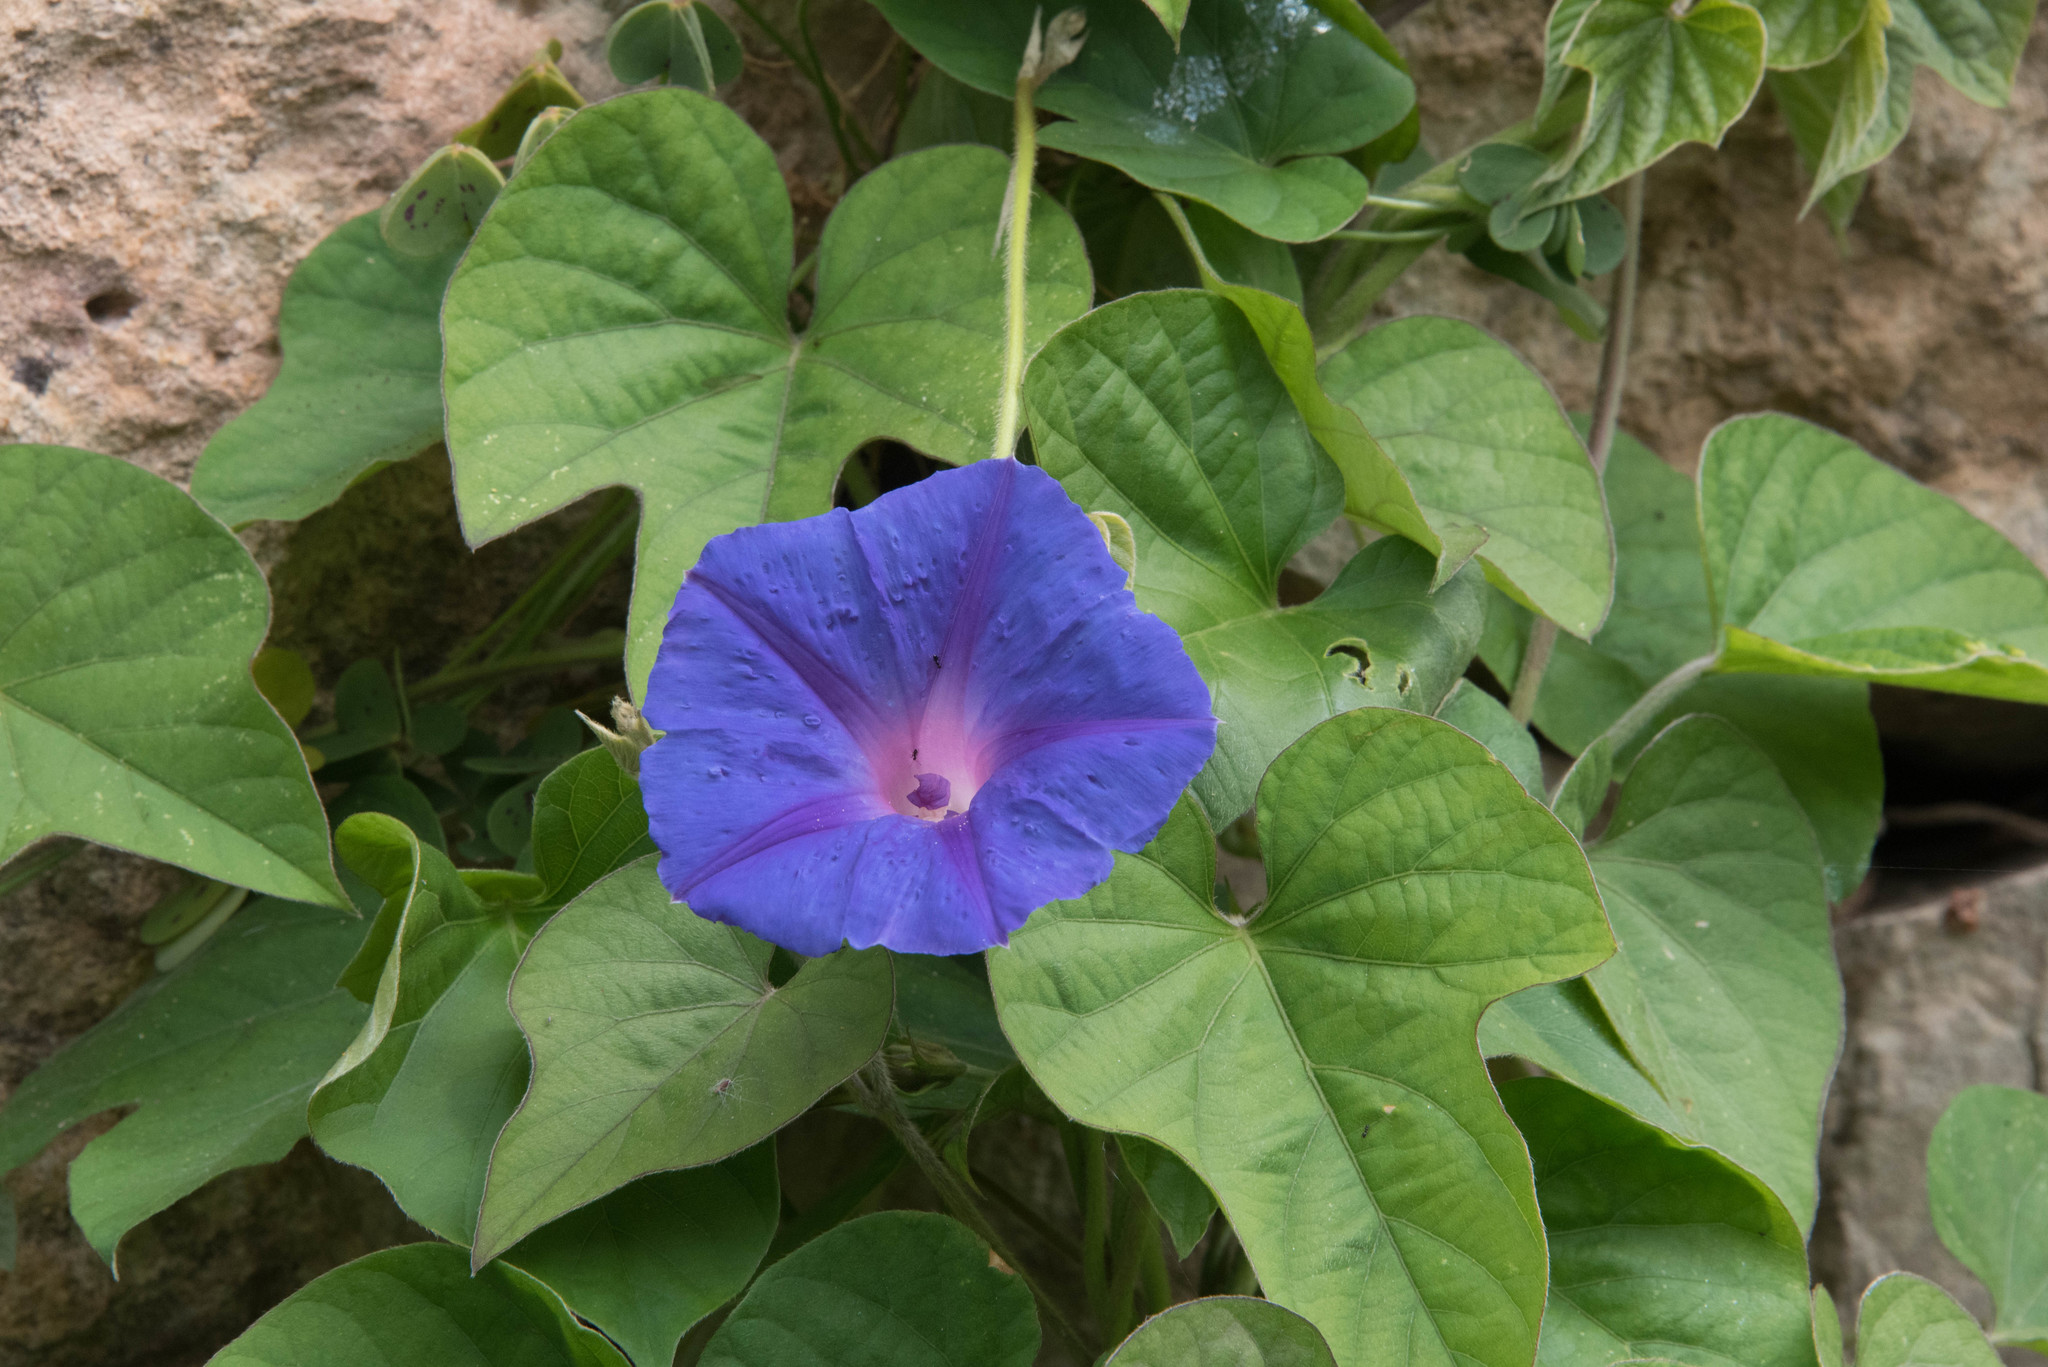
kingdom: Plantae
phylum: Tracheophyta
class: Magnoliopsida
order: Solanales
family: Convolvulaceae
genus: Ipomoea
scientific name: Ipomoea indica
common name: Blue dawnflower
